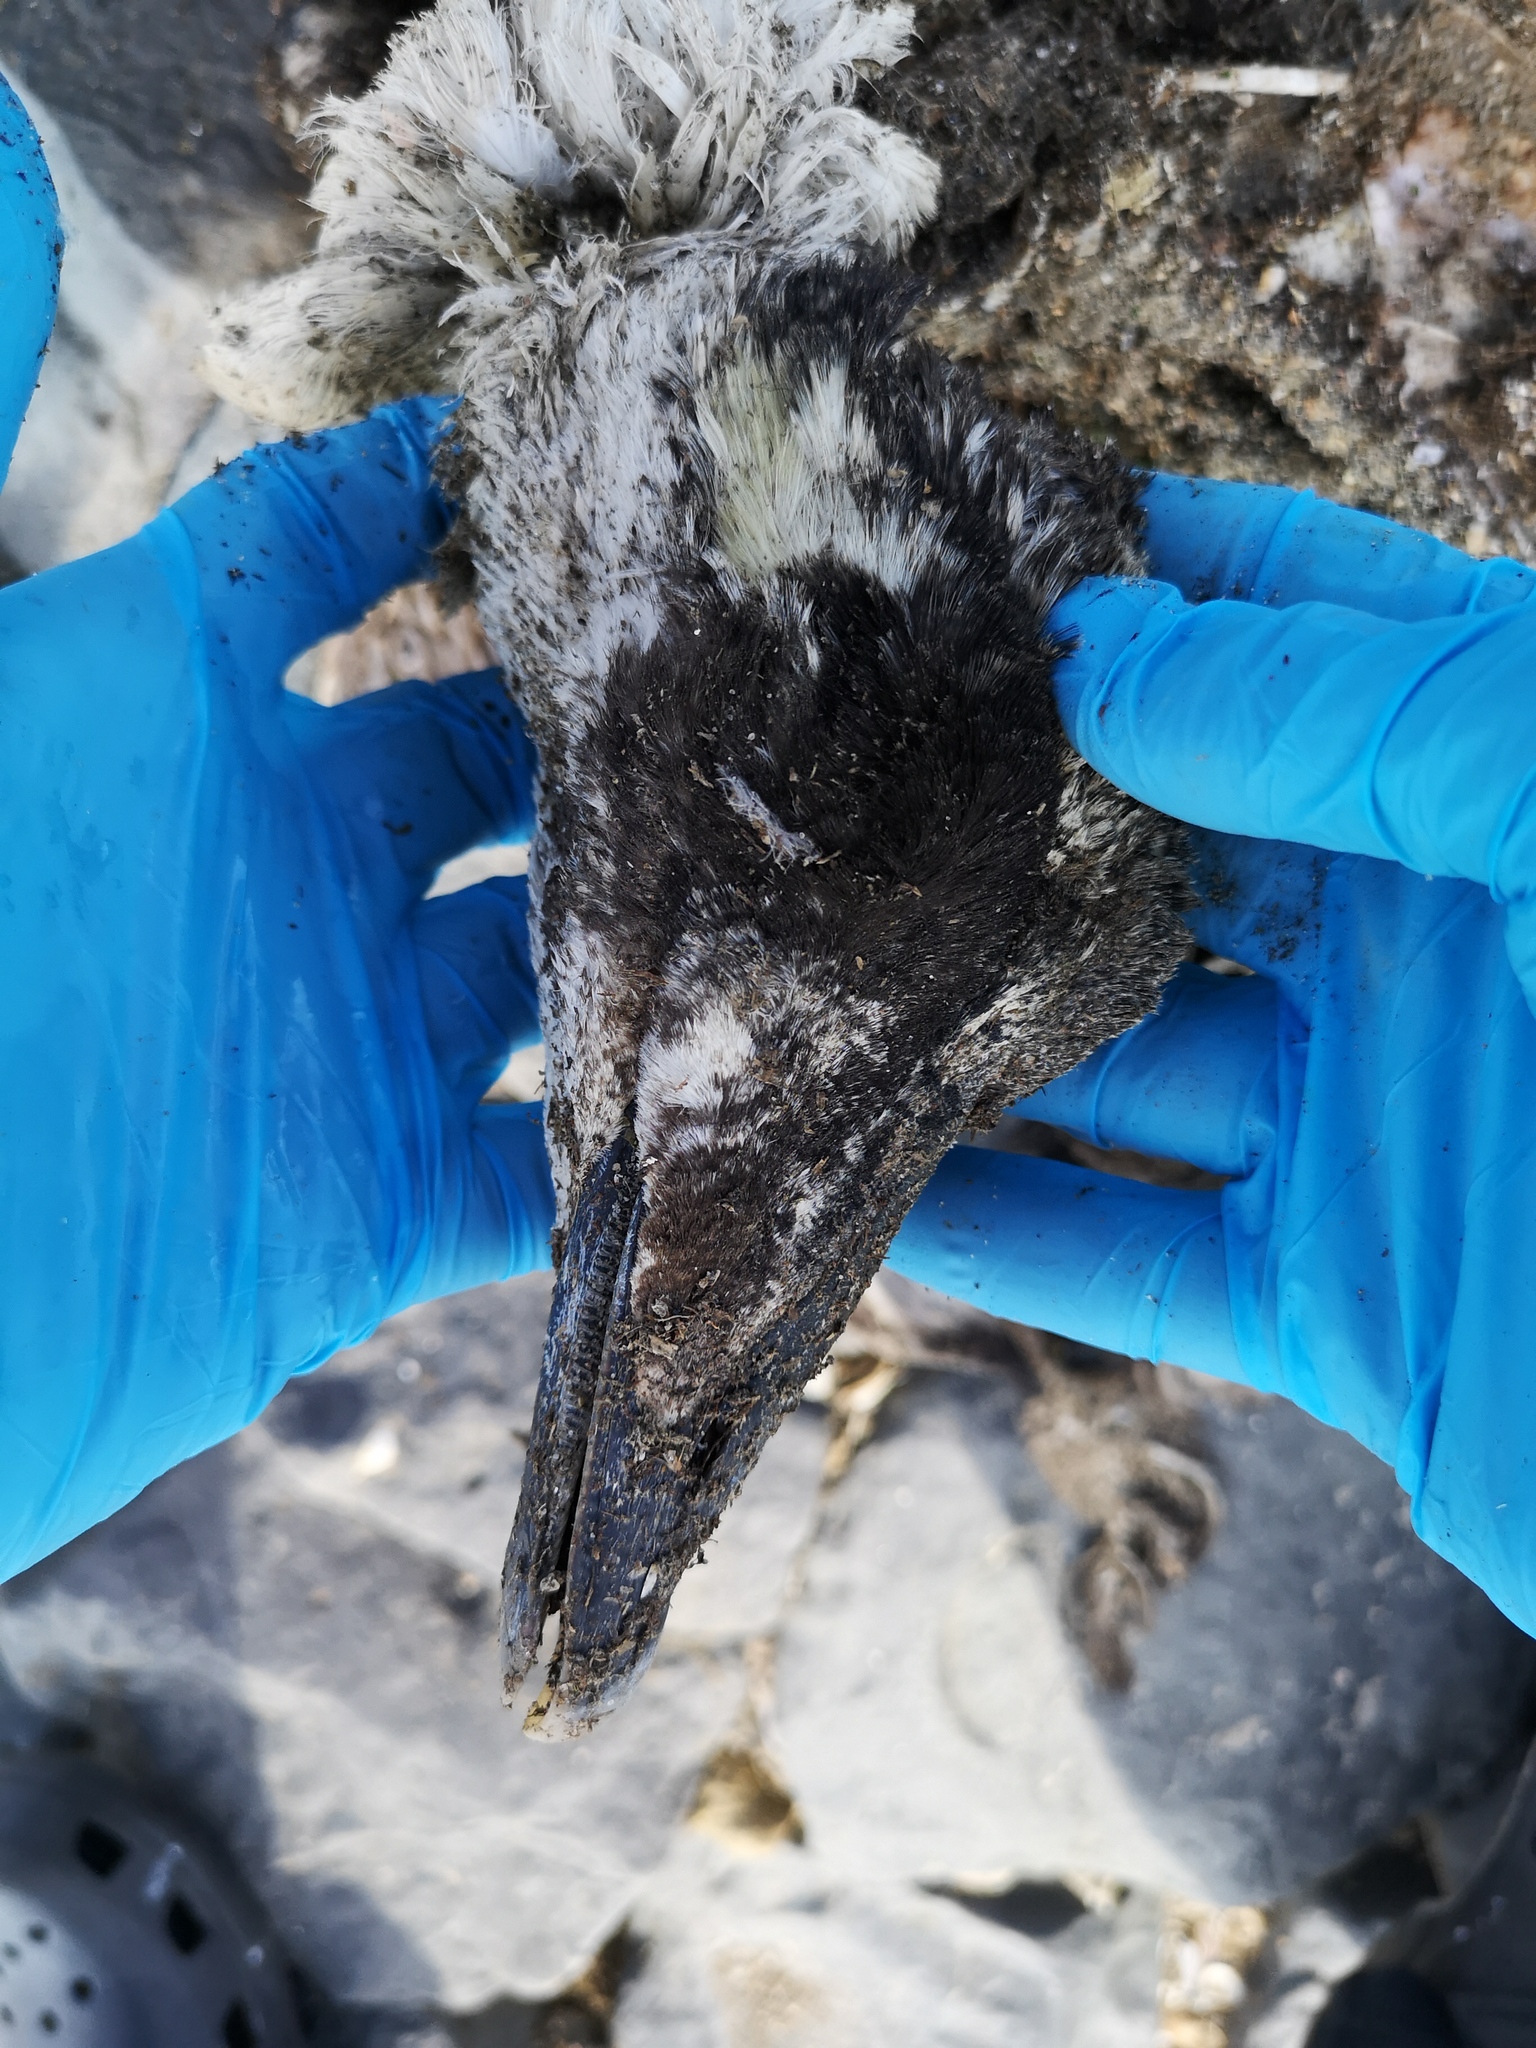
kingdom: Animalia
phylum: Chordata
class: Aves
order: Anseriformes
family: Anatidae
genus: Somateria
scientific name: Somateria mollissima
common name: Common eider
